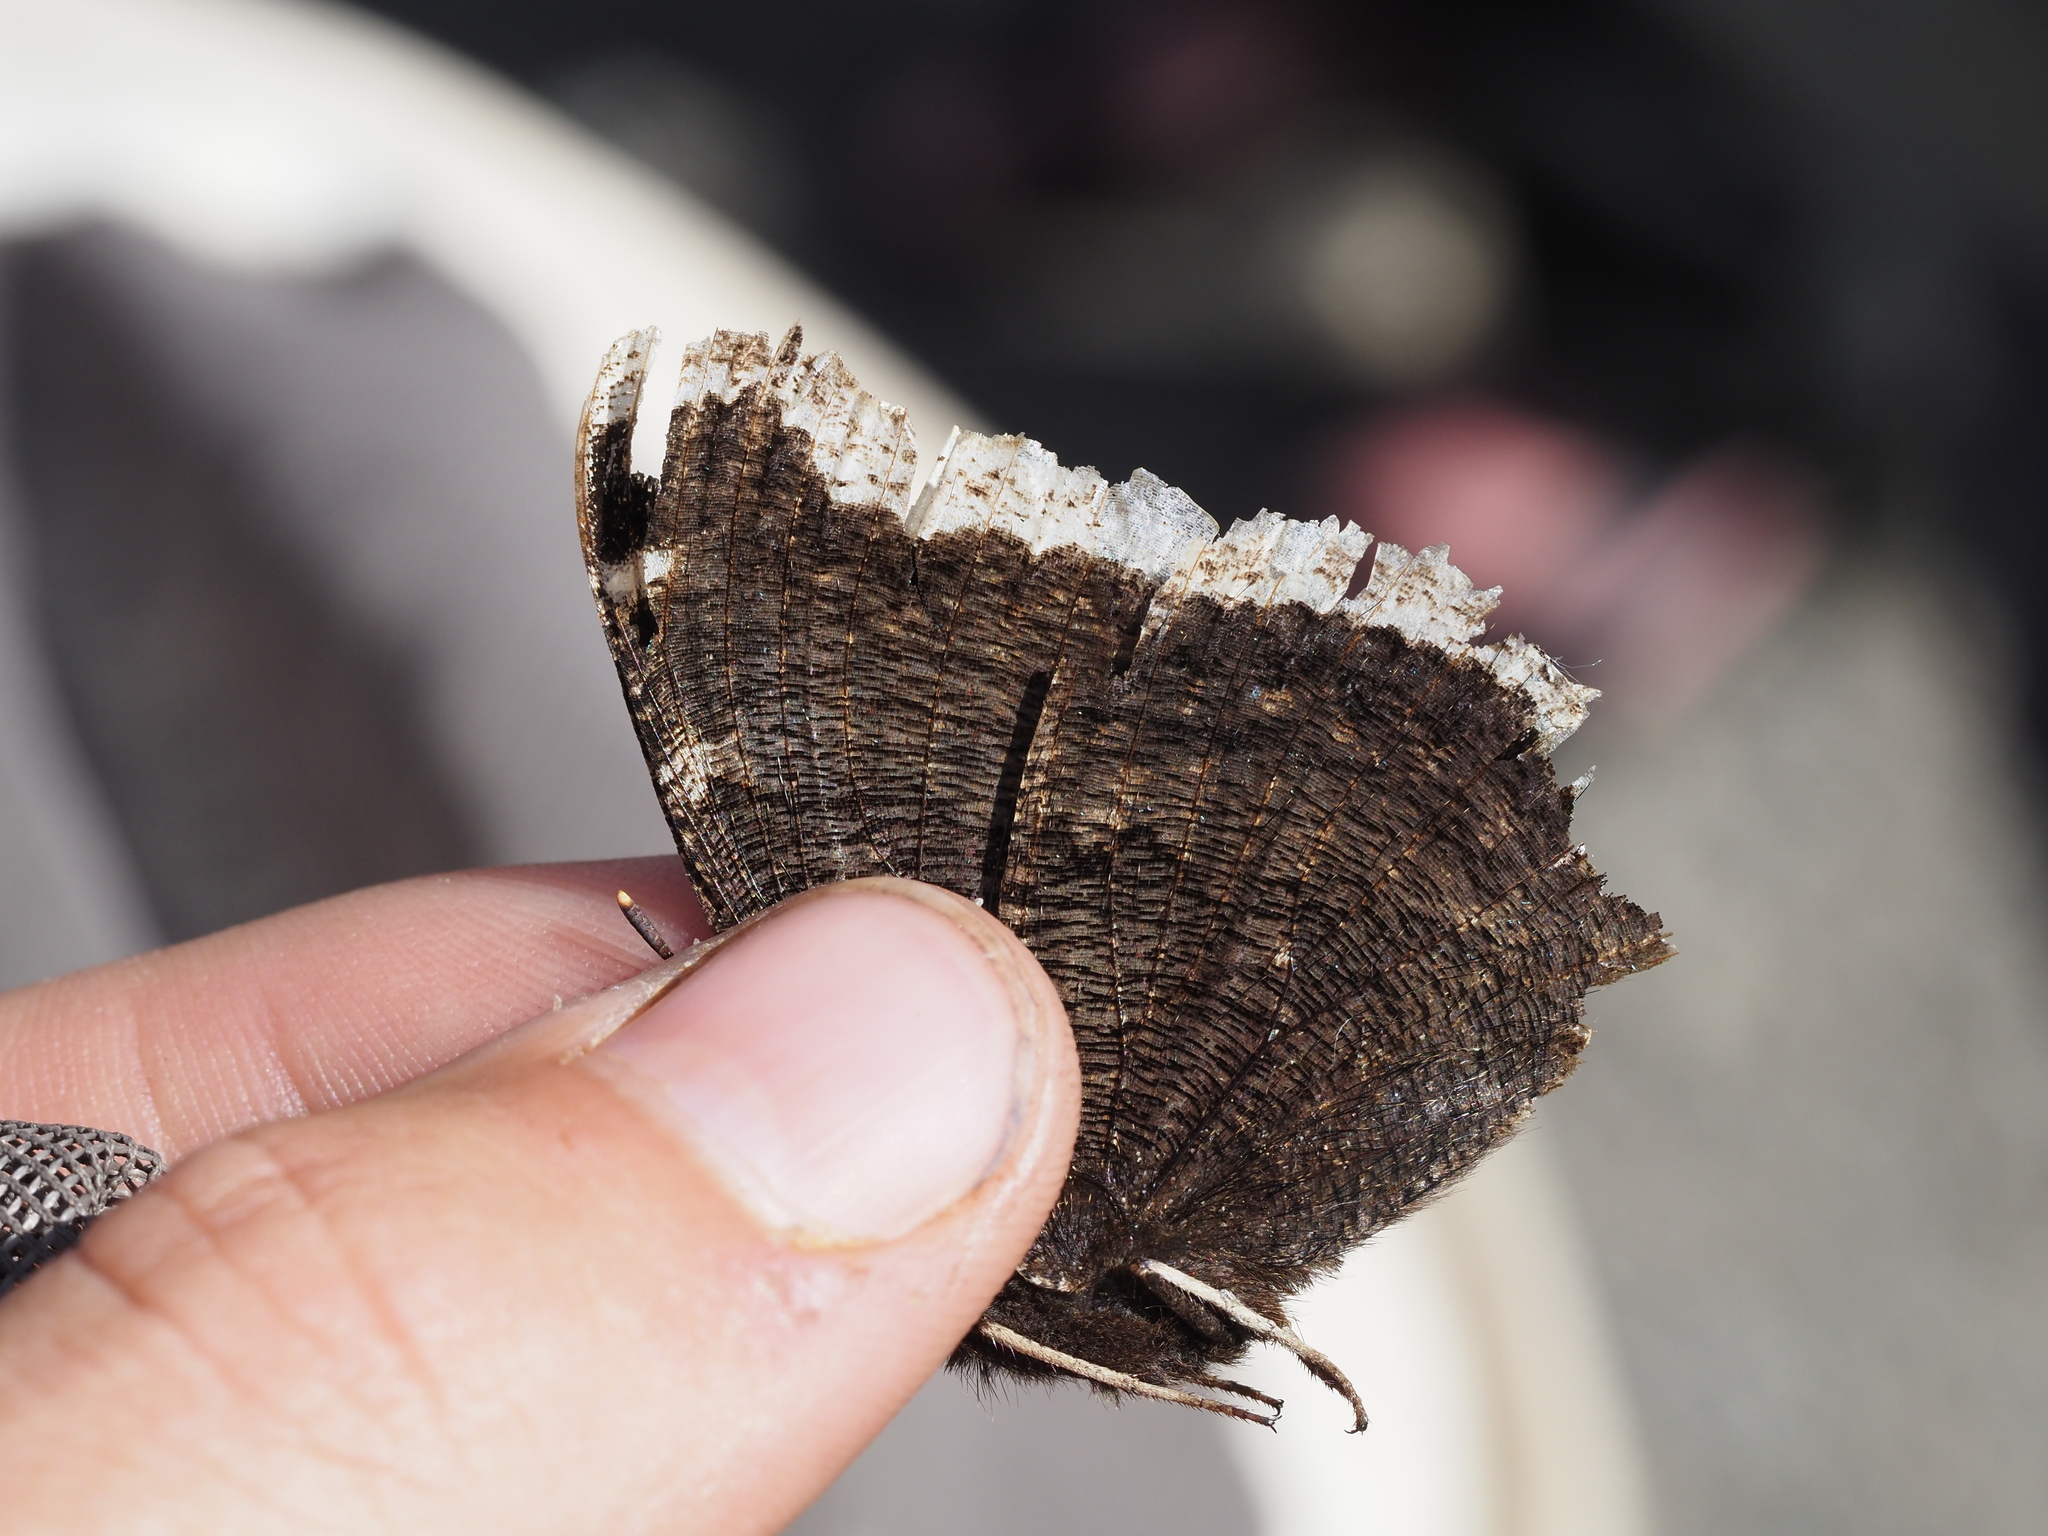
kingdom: Animalia
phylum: Arthropoda
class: Insecta
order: Lepidoptera
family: Nymphalidae
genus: Nymphalis
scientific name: Nymphalis antiopa
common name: Camberwell beauty
